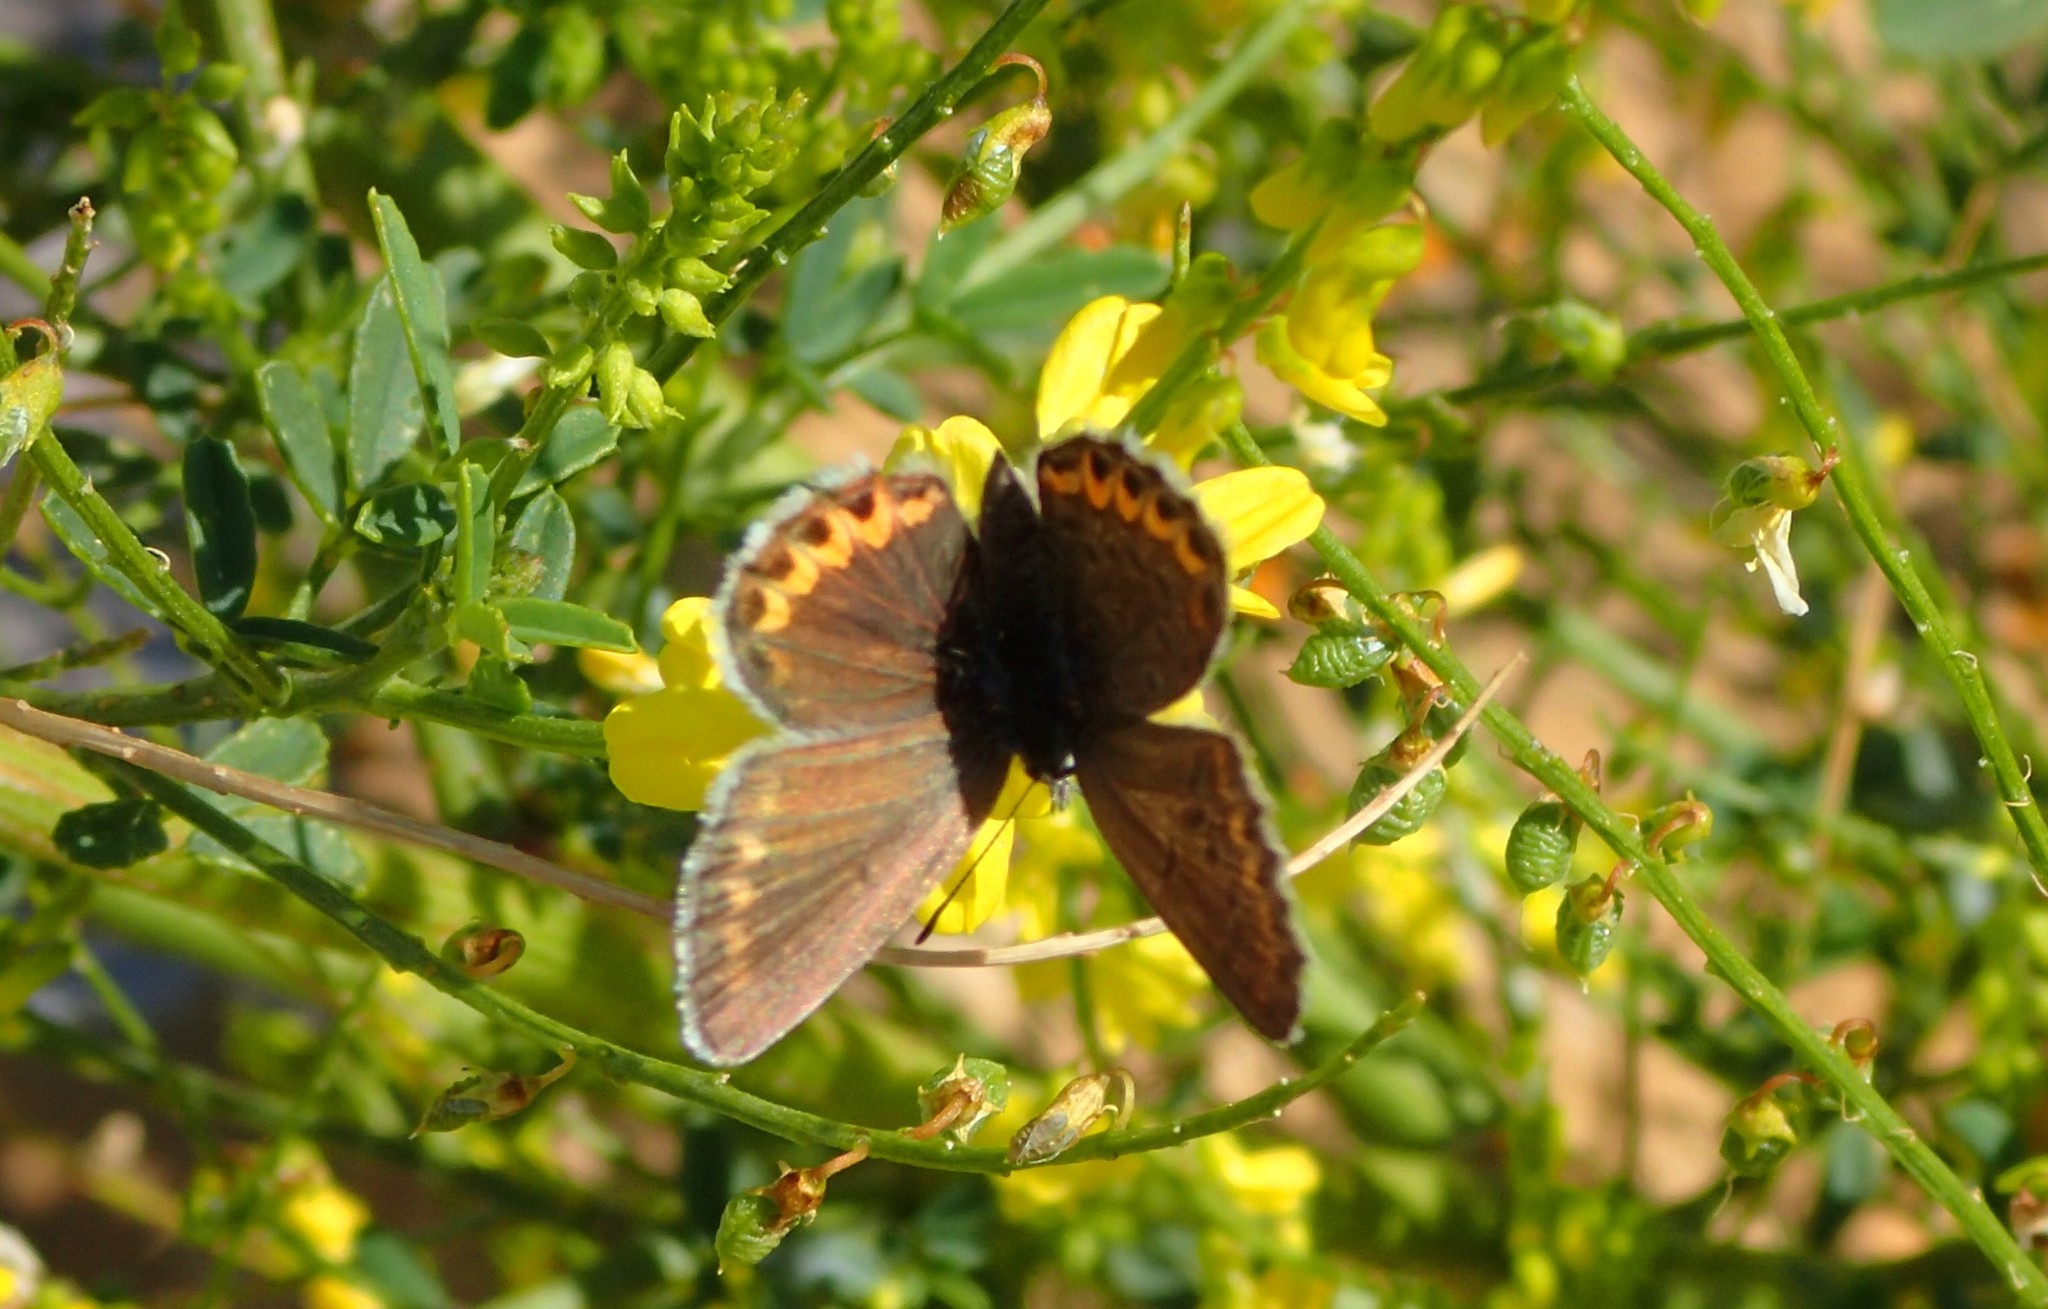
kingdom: Animalia
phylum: Arthropoda
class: Insecta
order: Lepidoptera
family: Lycaenidae
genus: Lycaeides
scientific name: Lycaeides melissa
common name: Melissa blue
